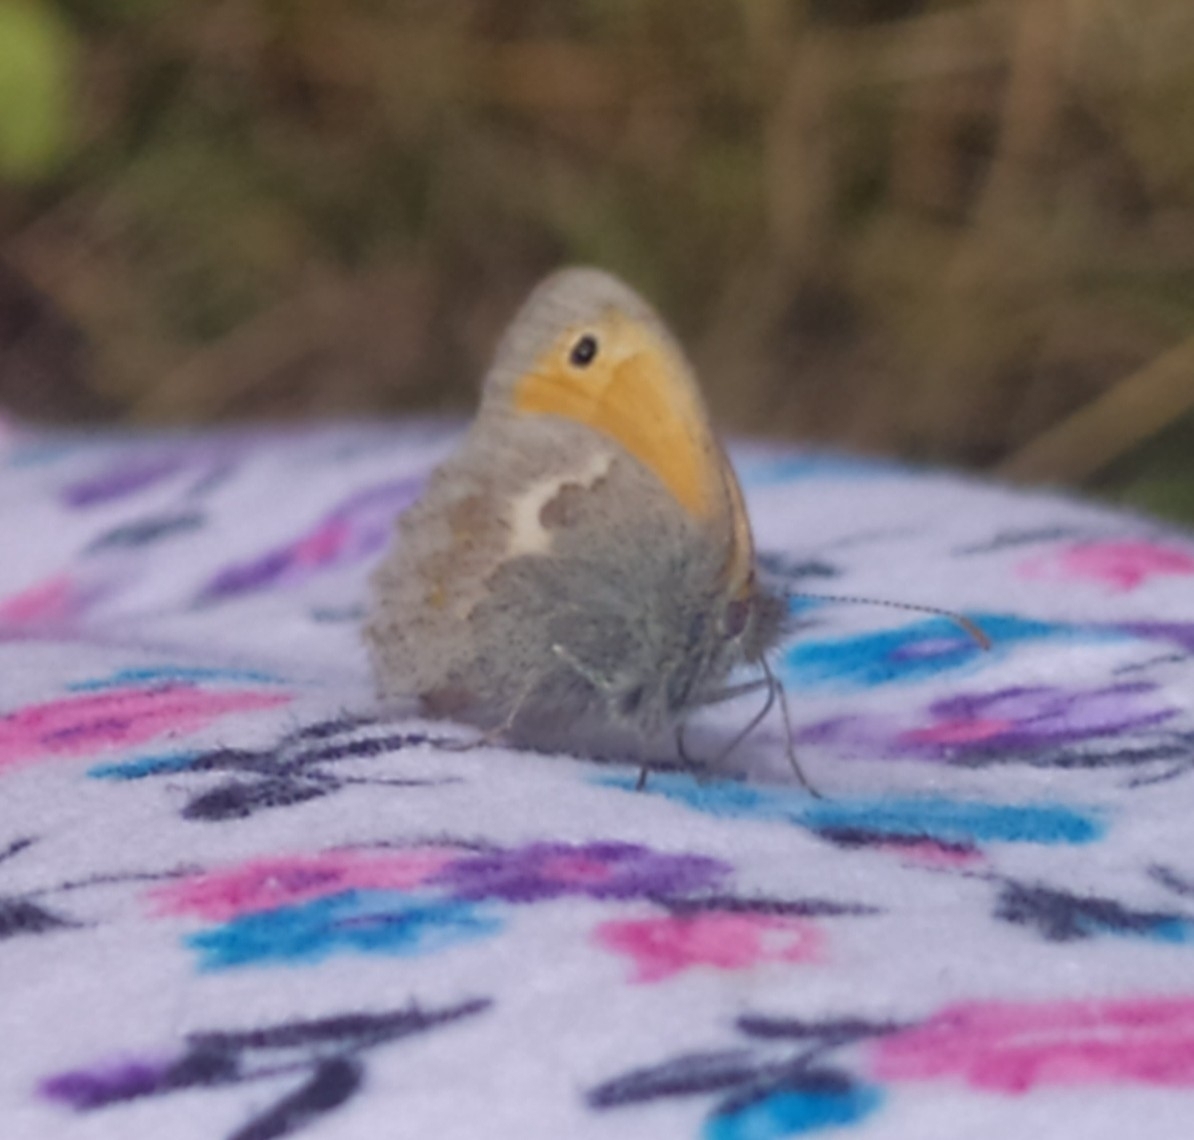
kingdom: Animalia
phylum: Arthropoda
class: Insecta
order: Lepidoptera
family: Nymphalidae
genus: Coenonympha
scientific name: Coenonympha pamphilus
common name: Small heath
